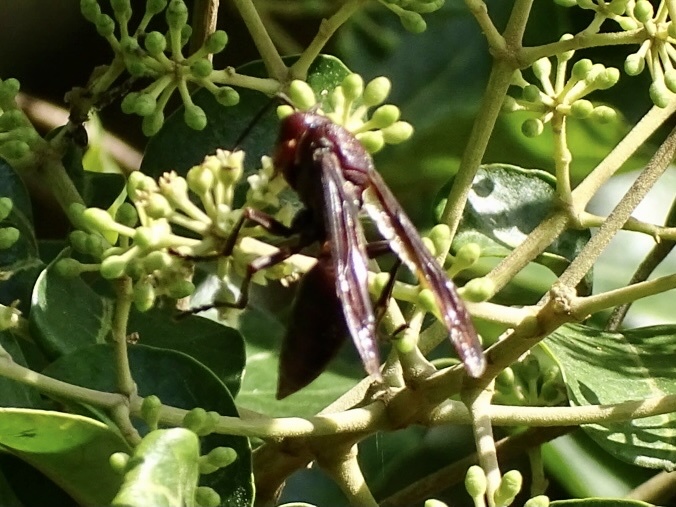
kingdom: Animalia
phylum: Arthropoda
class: Insecta
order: Hymenoptera
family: Eumenidae
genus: Polistes
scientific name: Polistes gigas
